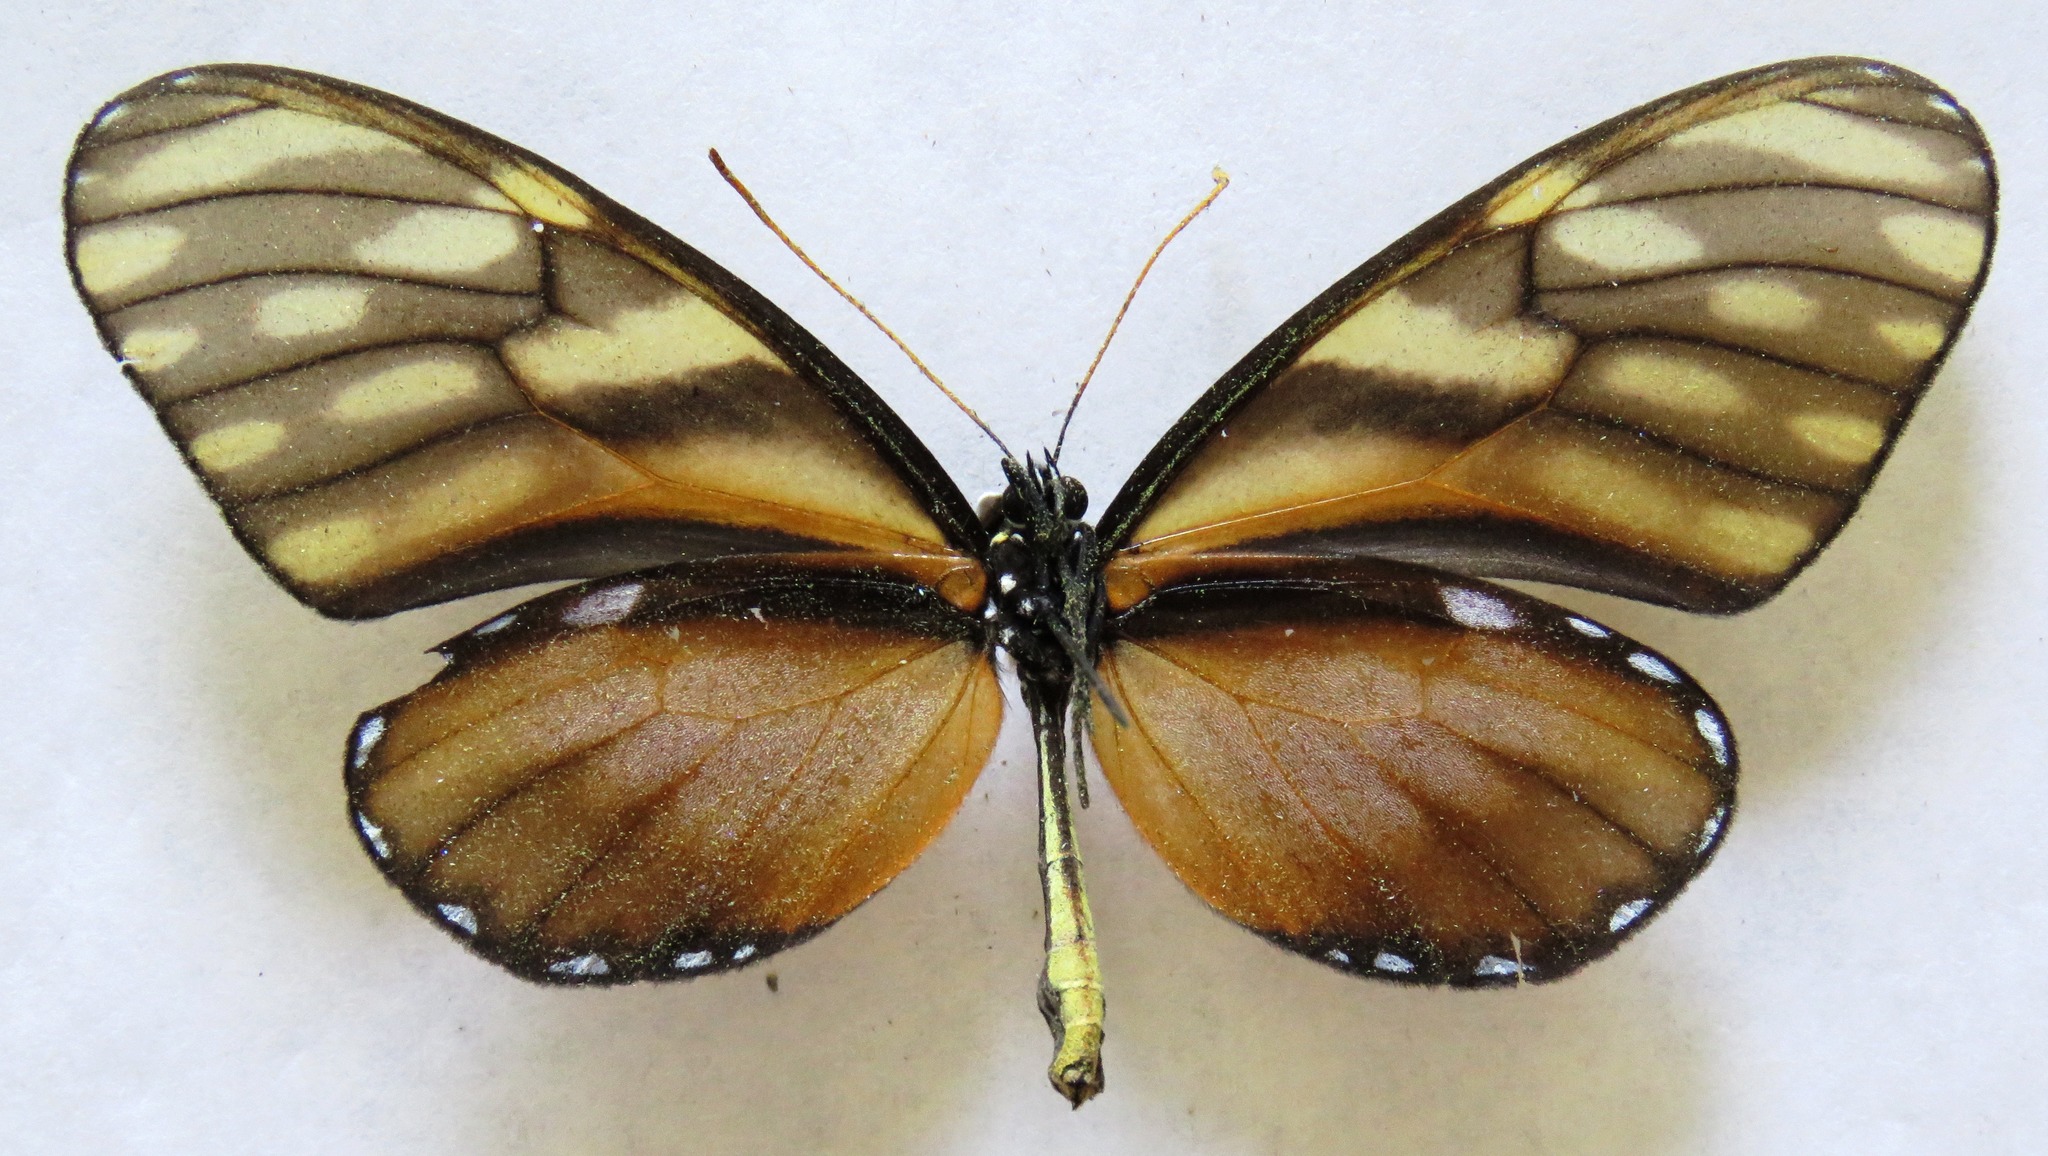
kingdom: Animalia
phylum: Arthropoda
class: Insecta
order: Lepidoptera
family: Nymphalidae
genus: Dircenna
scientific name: Dircenna klugii
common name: Klug’s clearwing
